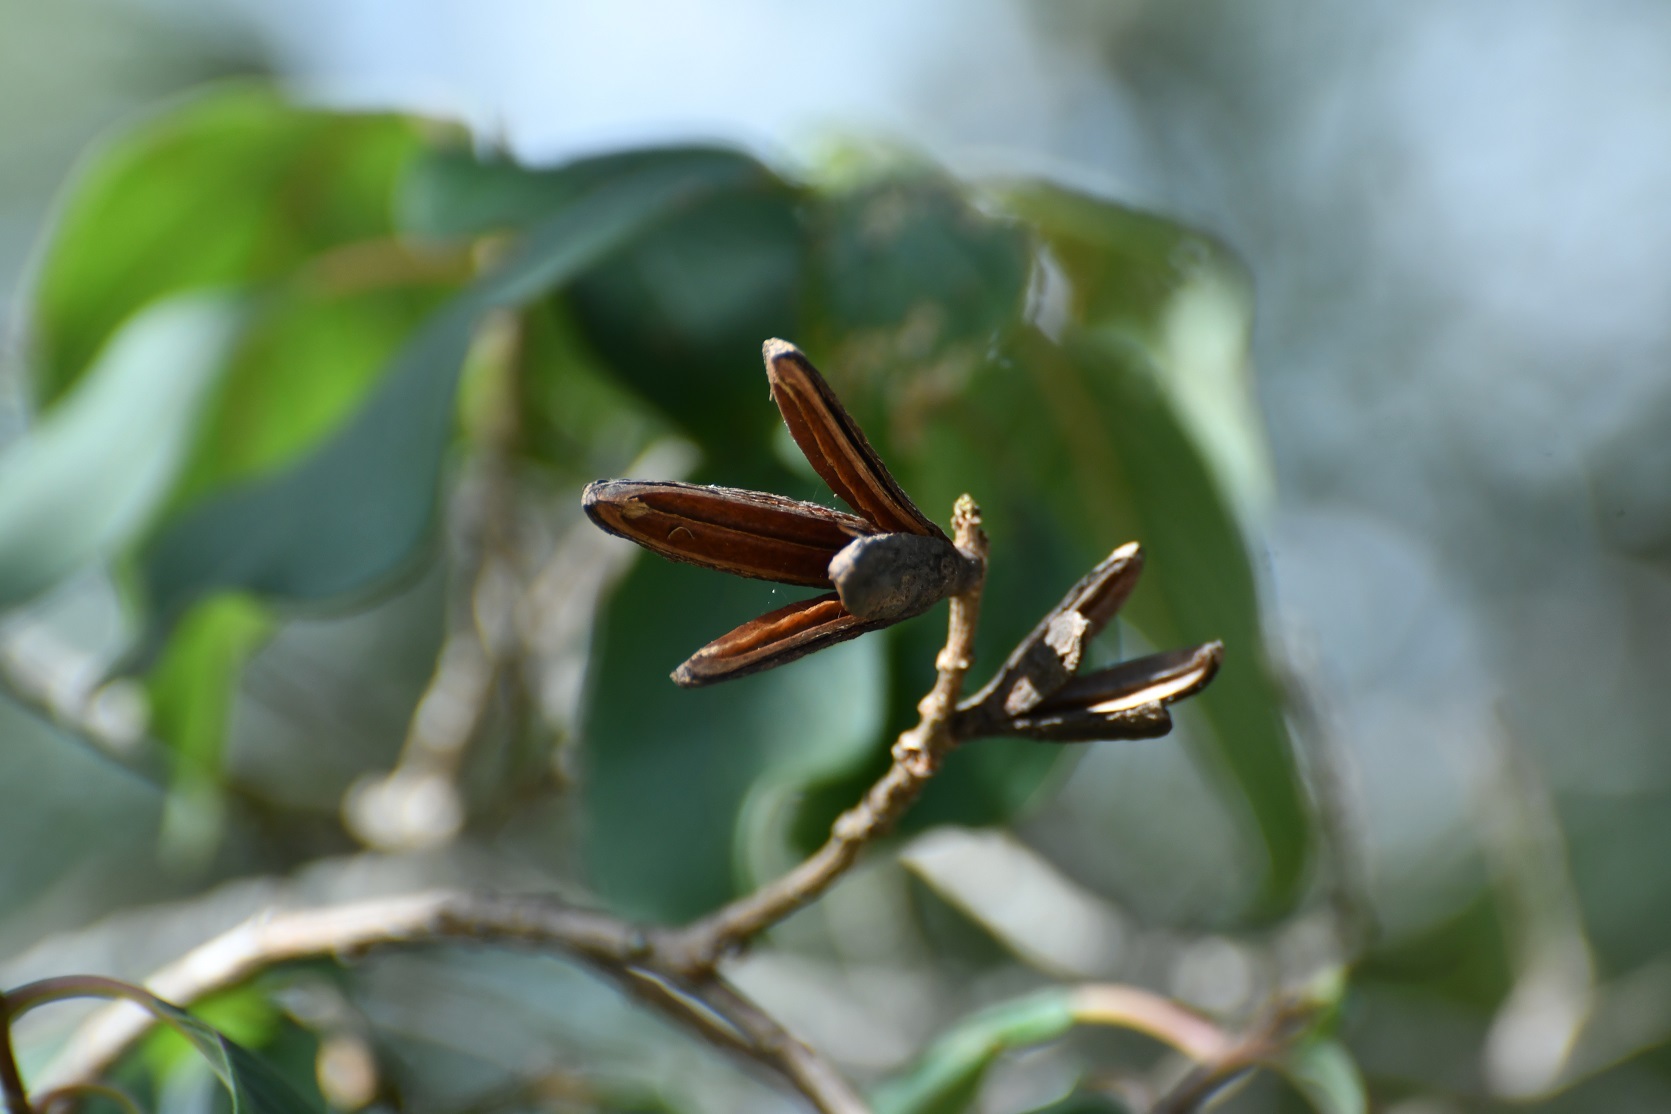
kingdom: Plantae
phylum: Tracheophyta
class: Magnoliopsida
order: Myrtales
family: Onagraceae
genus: Hauya
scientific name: Hauya elegans
